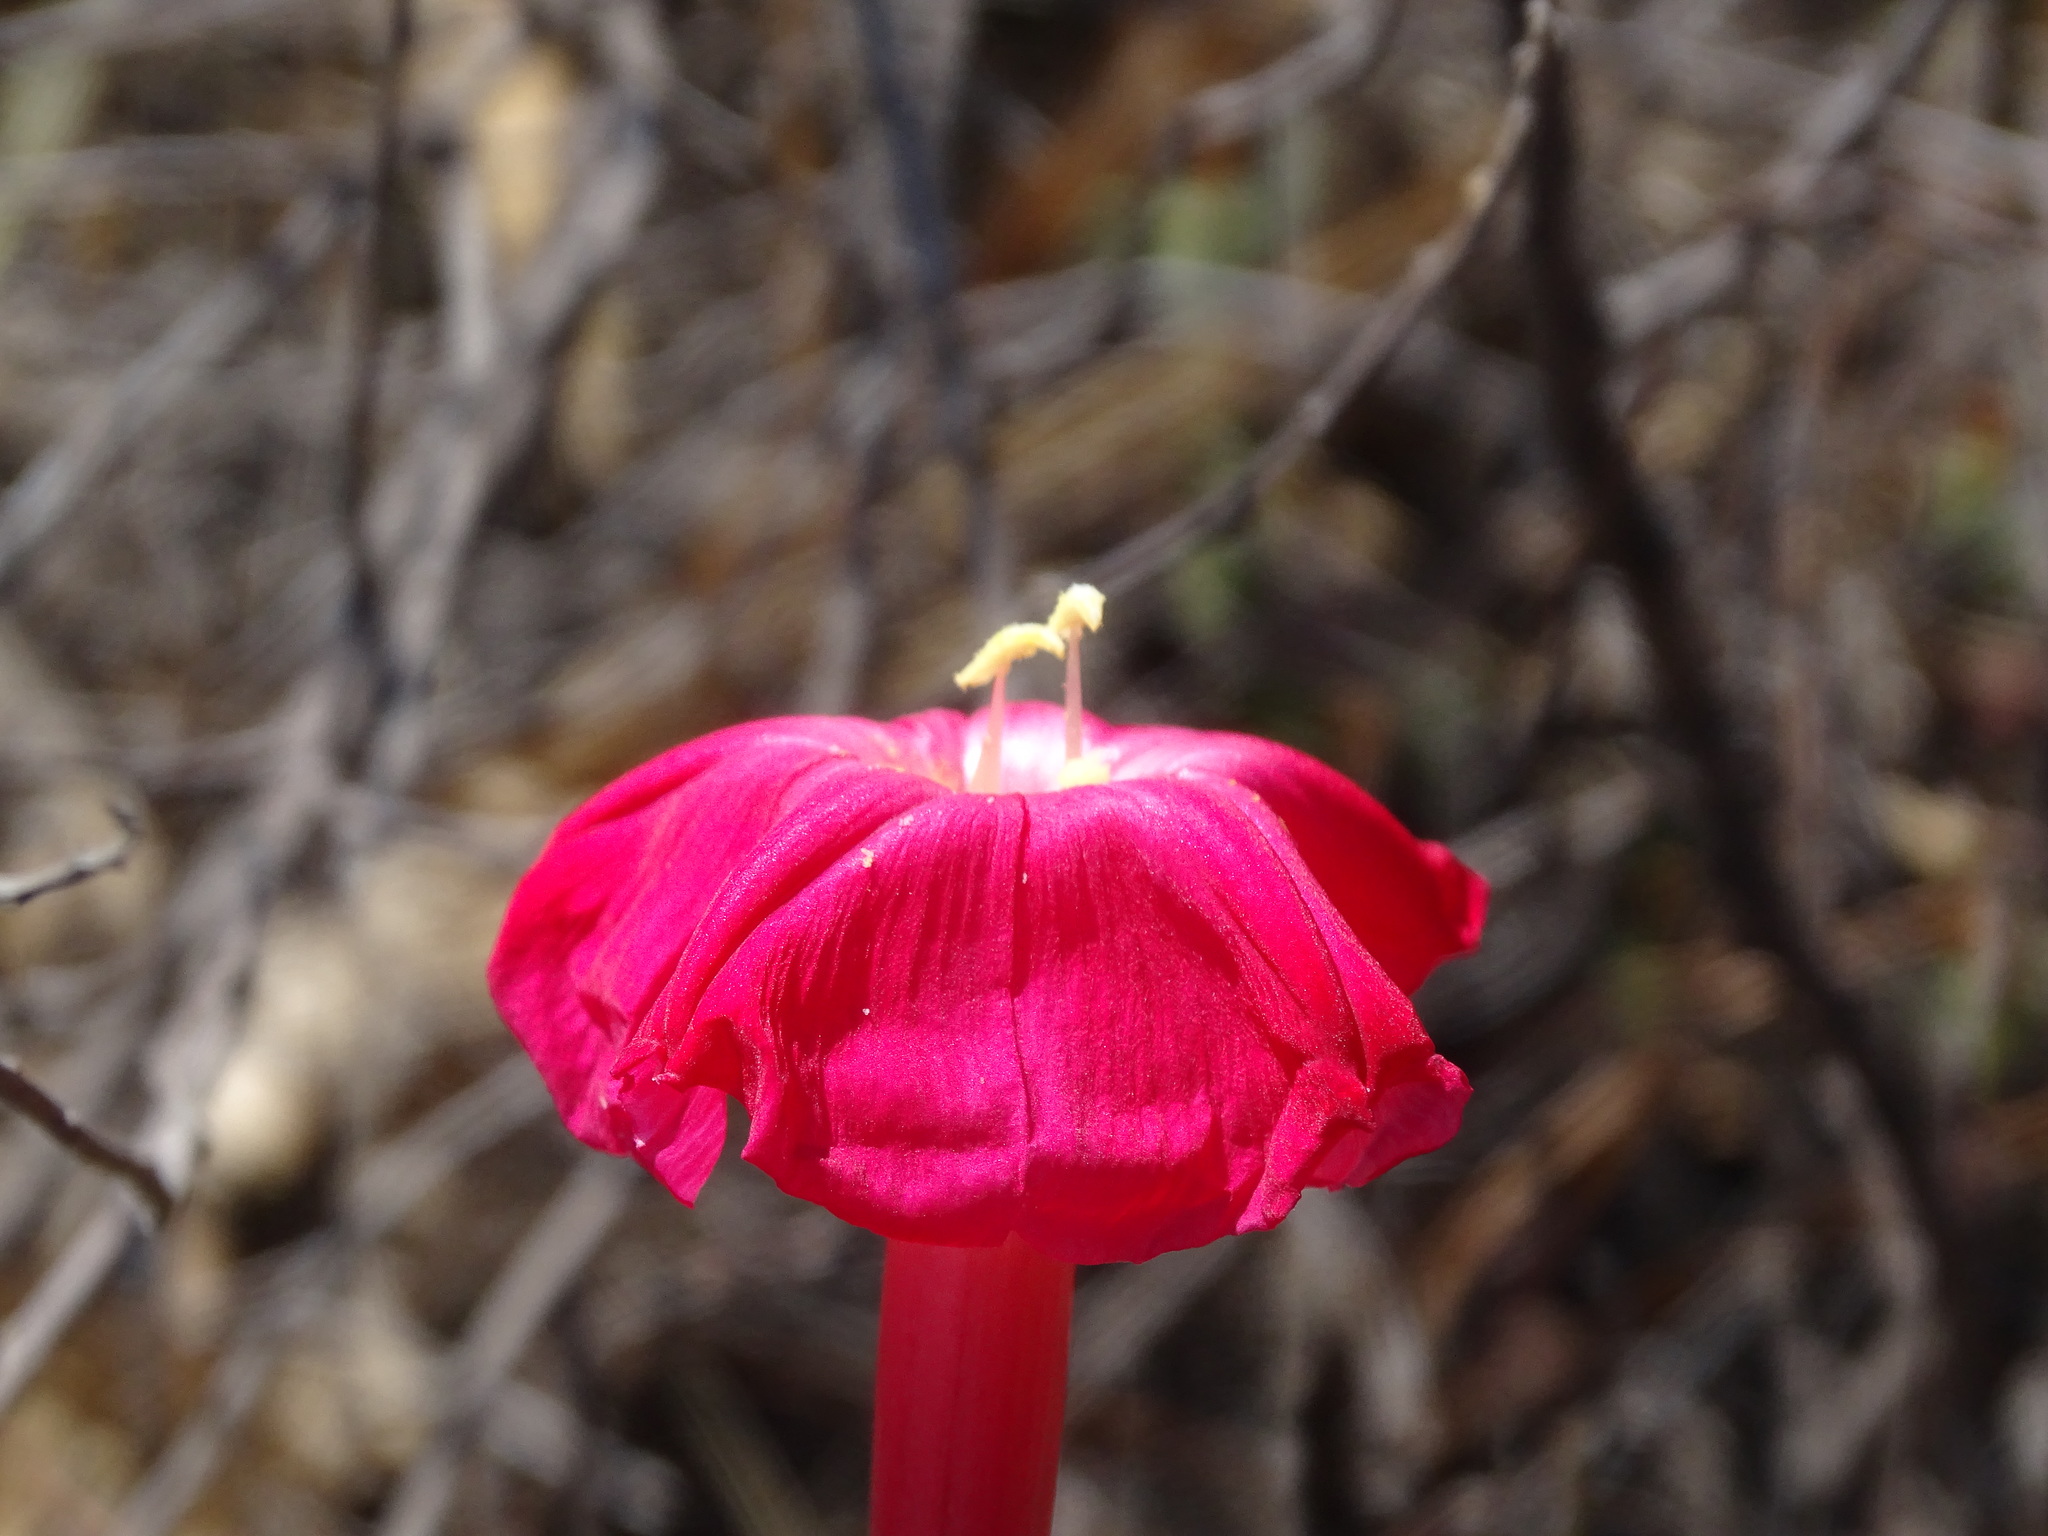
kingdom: Plantae
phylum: Tracheophyta
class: Magnoliopsida
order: Solanales
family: Convolvulaceae
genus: Ipomoea
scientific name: Ipomoea conzattii
